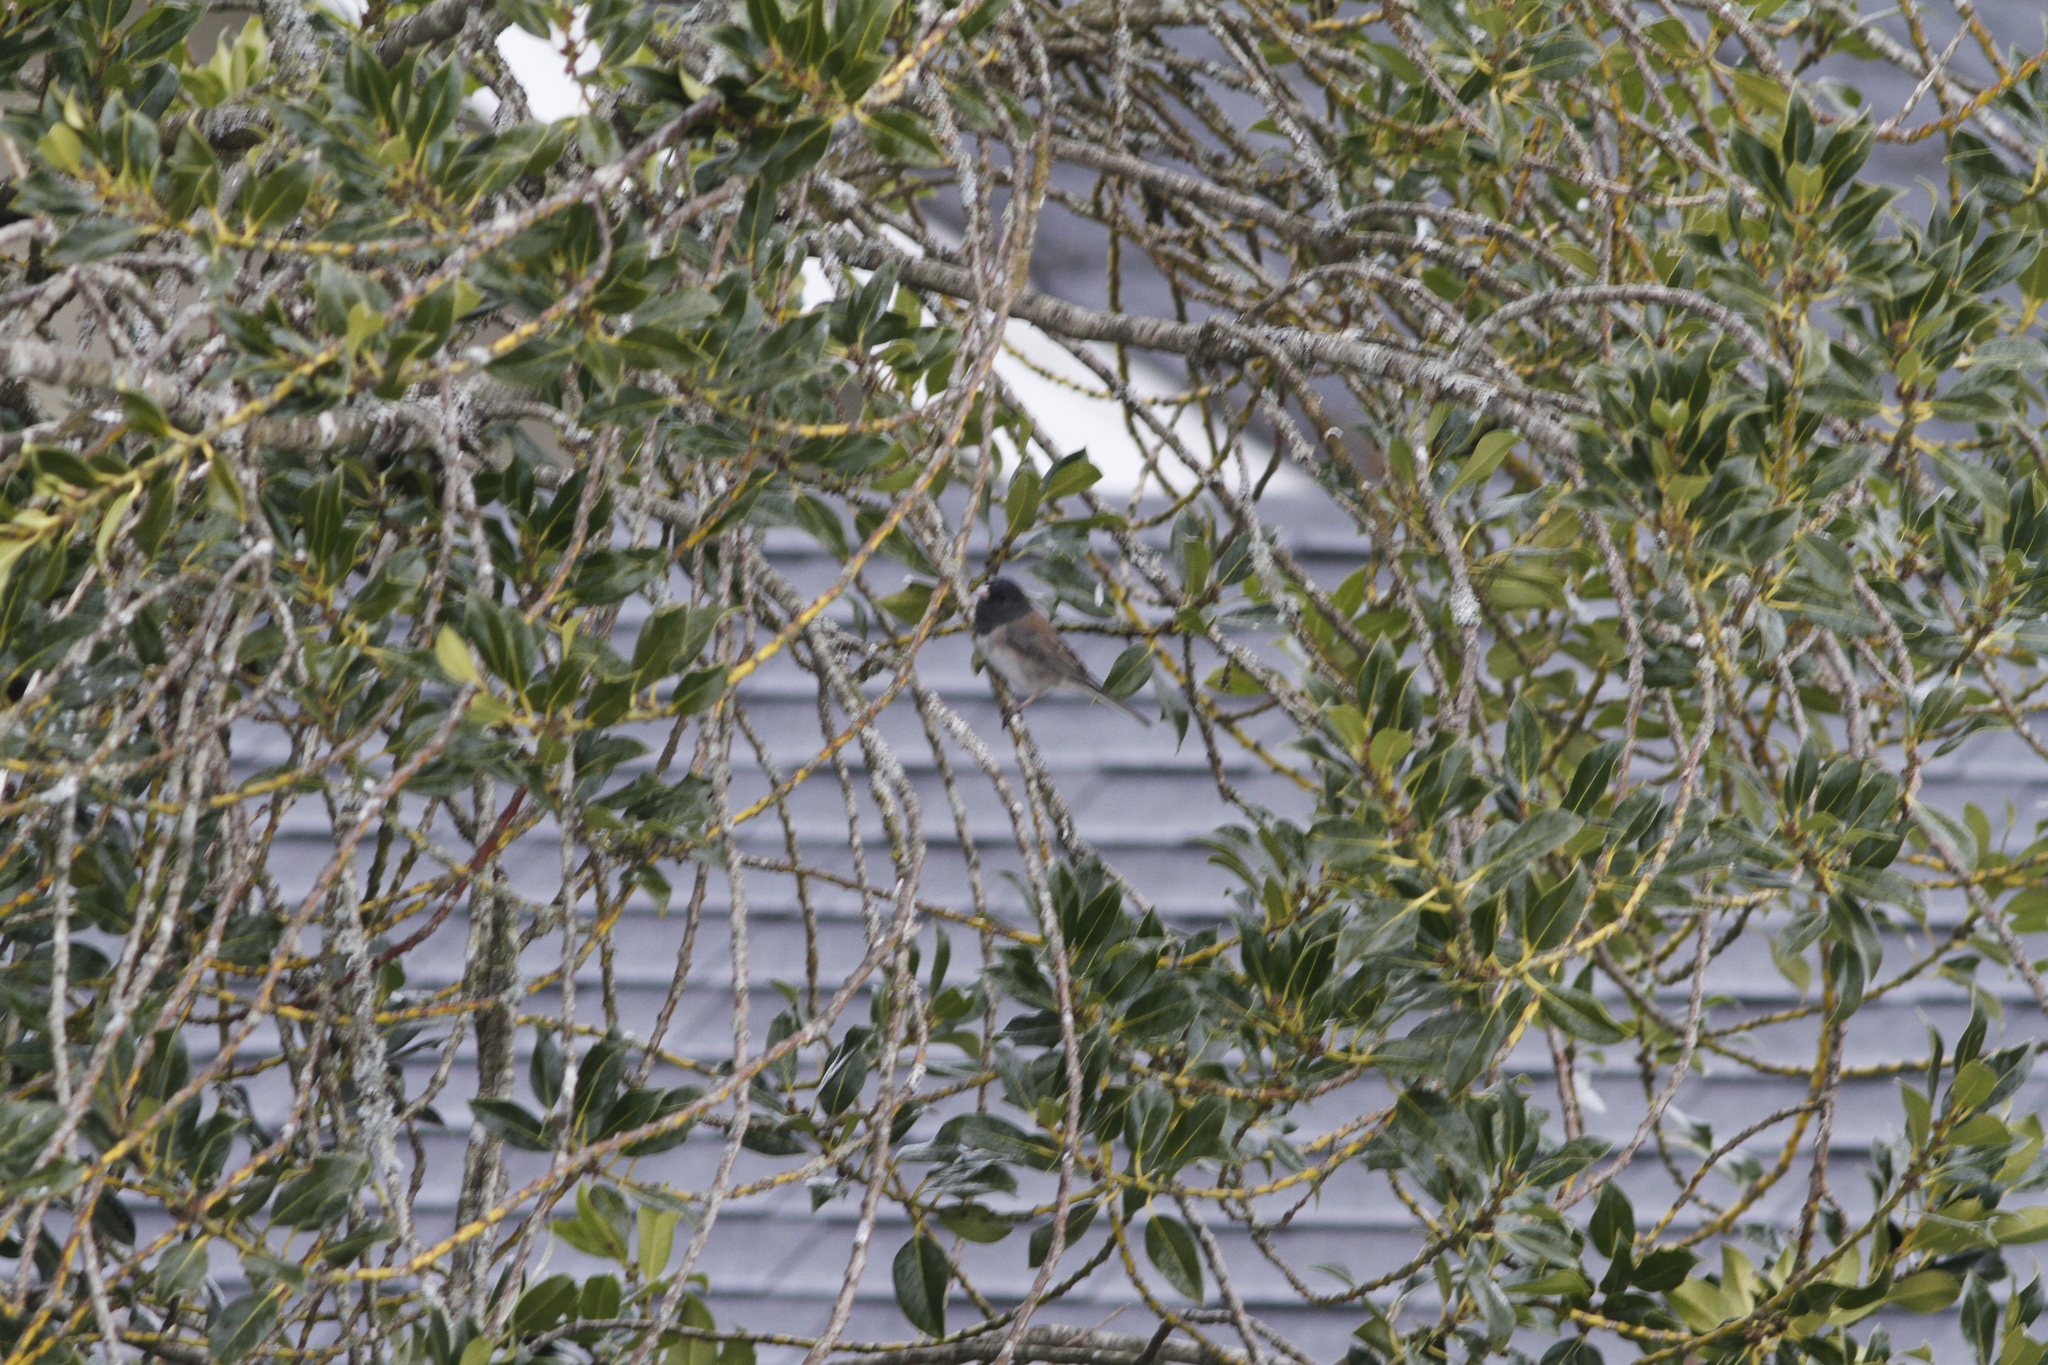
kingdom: Animalia
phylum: Chordata
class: Aves
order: Passeriformes
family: Passerellidae
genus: Junco
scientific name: Junco hyemalis
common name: Dark-eyed junco
